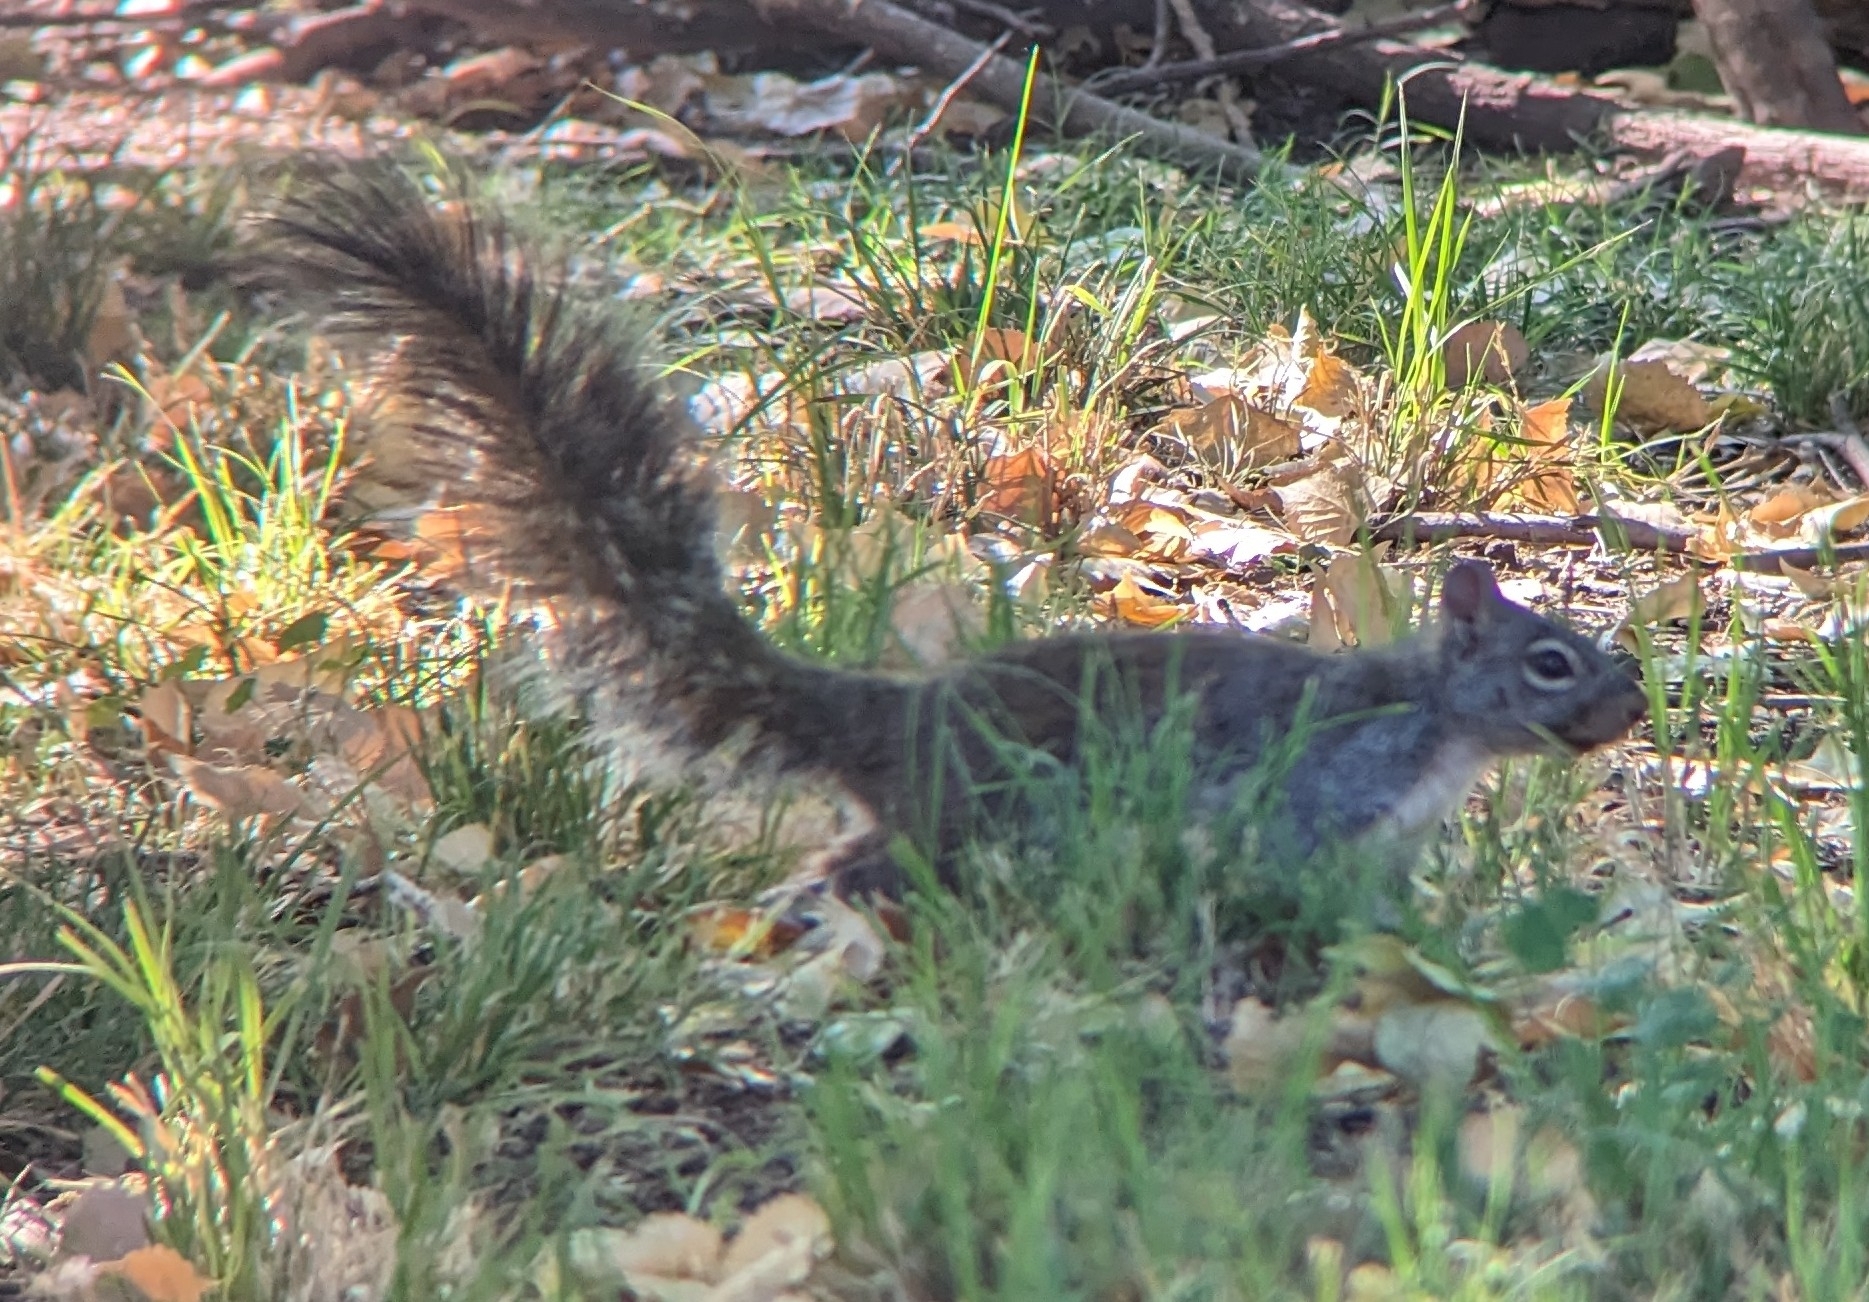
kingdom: Animalia
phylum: Chordata
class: Mammalia
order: Rodentia
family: Sciuridae
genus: Sciurus
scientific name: Sciurus arizonensis
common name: Arizona gray squirrel
